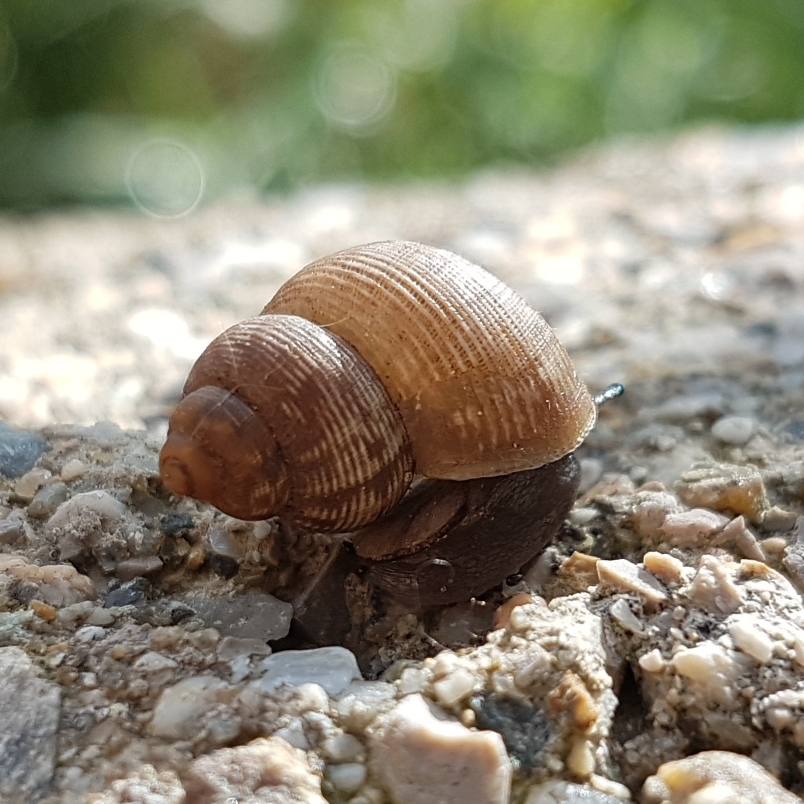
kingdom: Animalia
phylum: Mollusca
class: Gastropoda
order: Littorinimorpha
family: Pomatiidae
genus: Pomatias
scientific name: Pomatias elegans
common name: Red-mouthed snail
